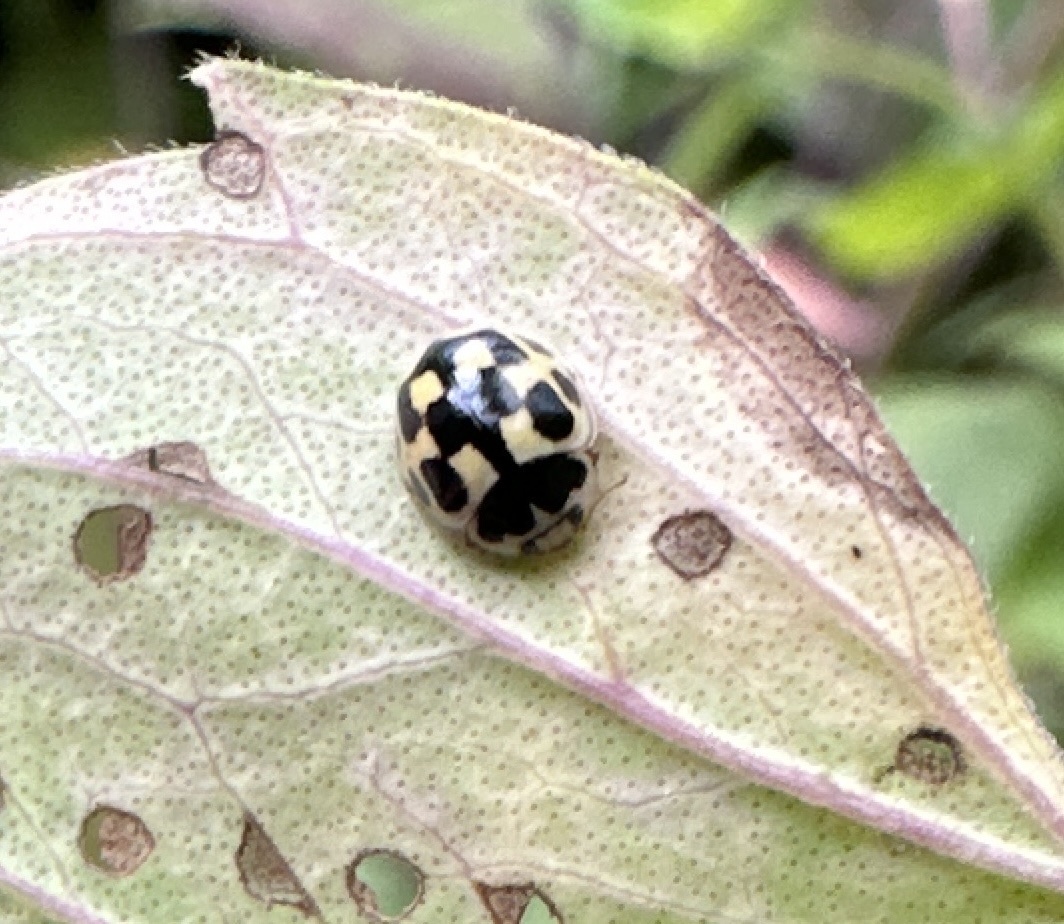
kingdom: Animalia
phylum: Arthropoda
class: Insecta
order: Coleoptera
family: Coccinellidae
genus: Propylaea
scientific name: Propylaea quatuordecimpunctata
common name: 14-spotted ladybird beetle
